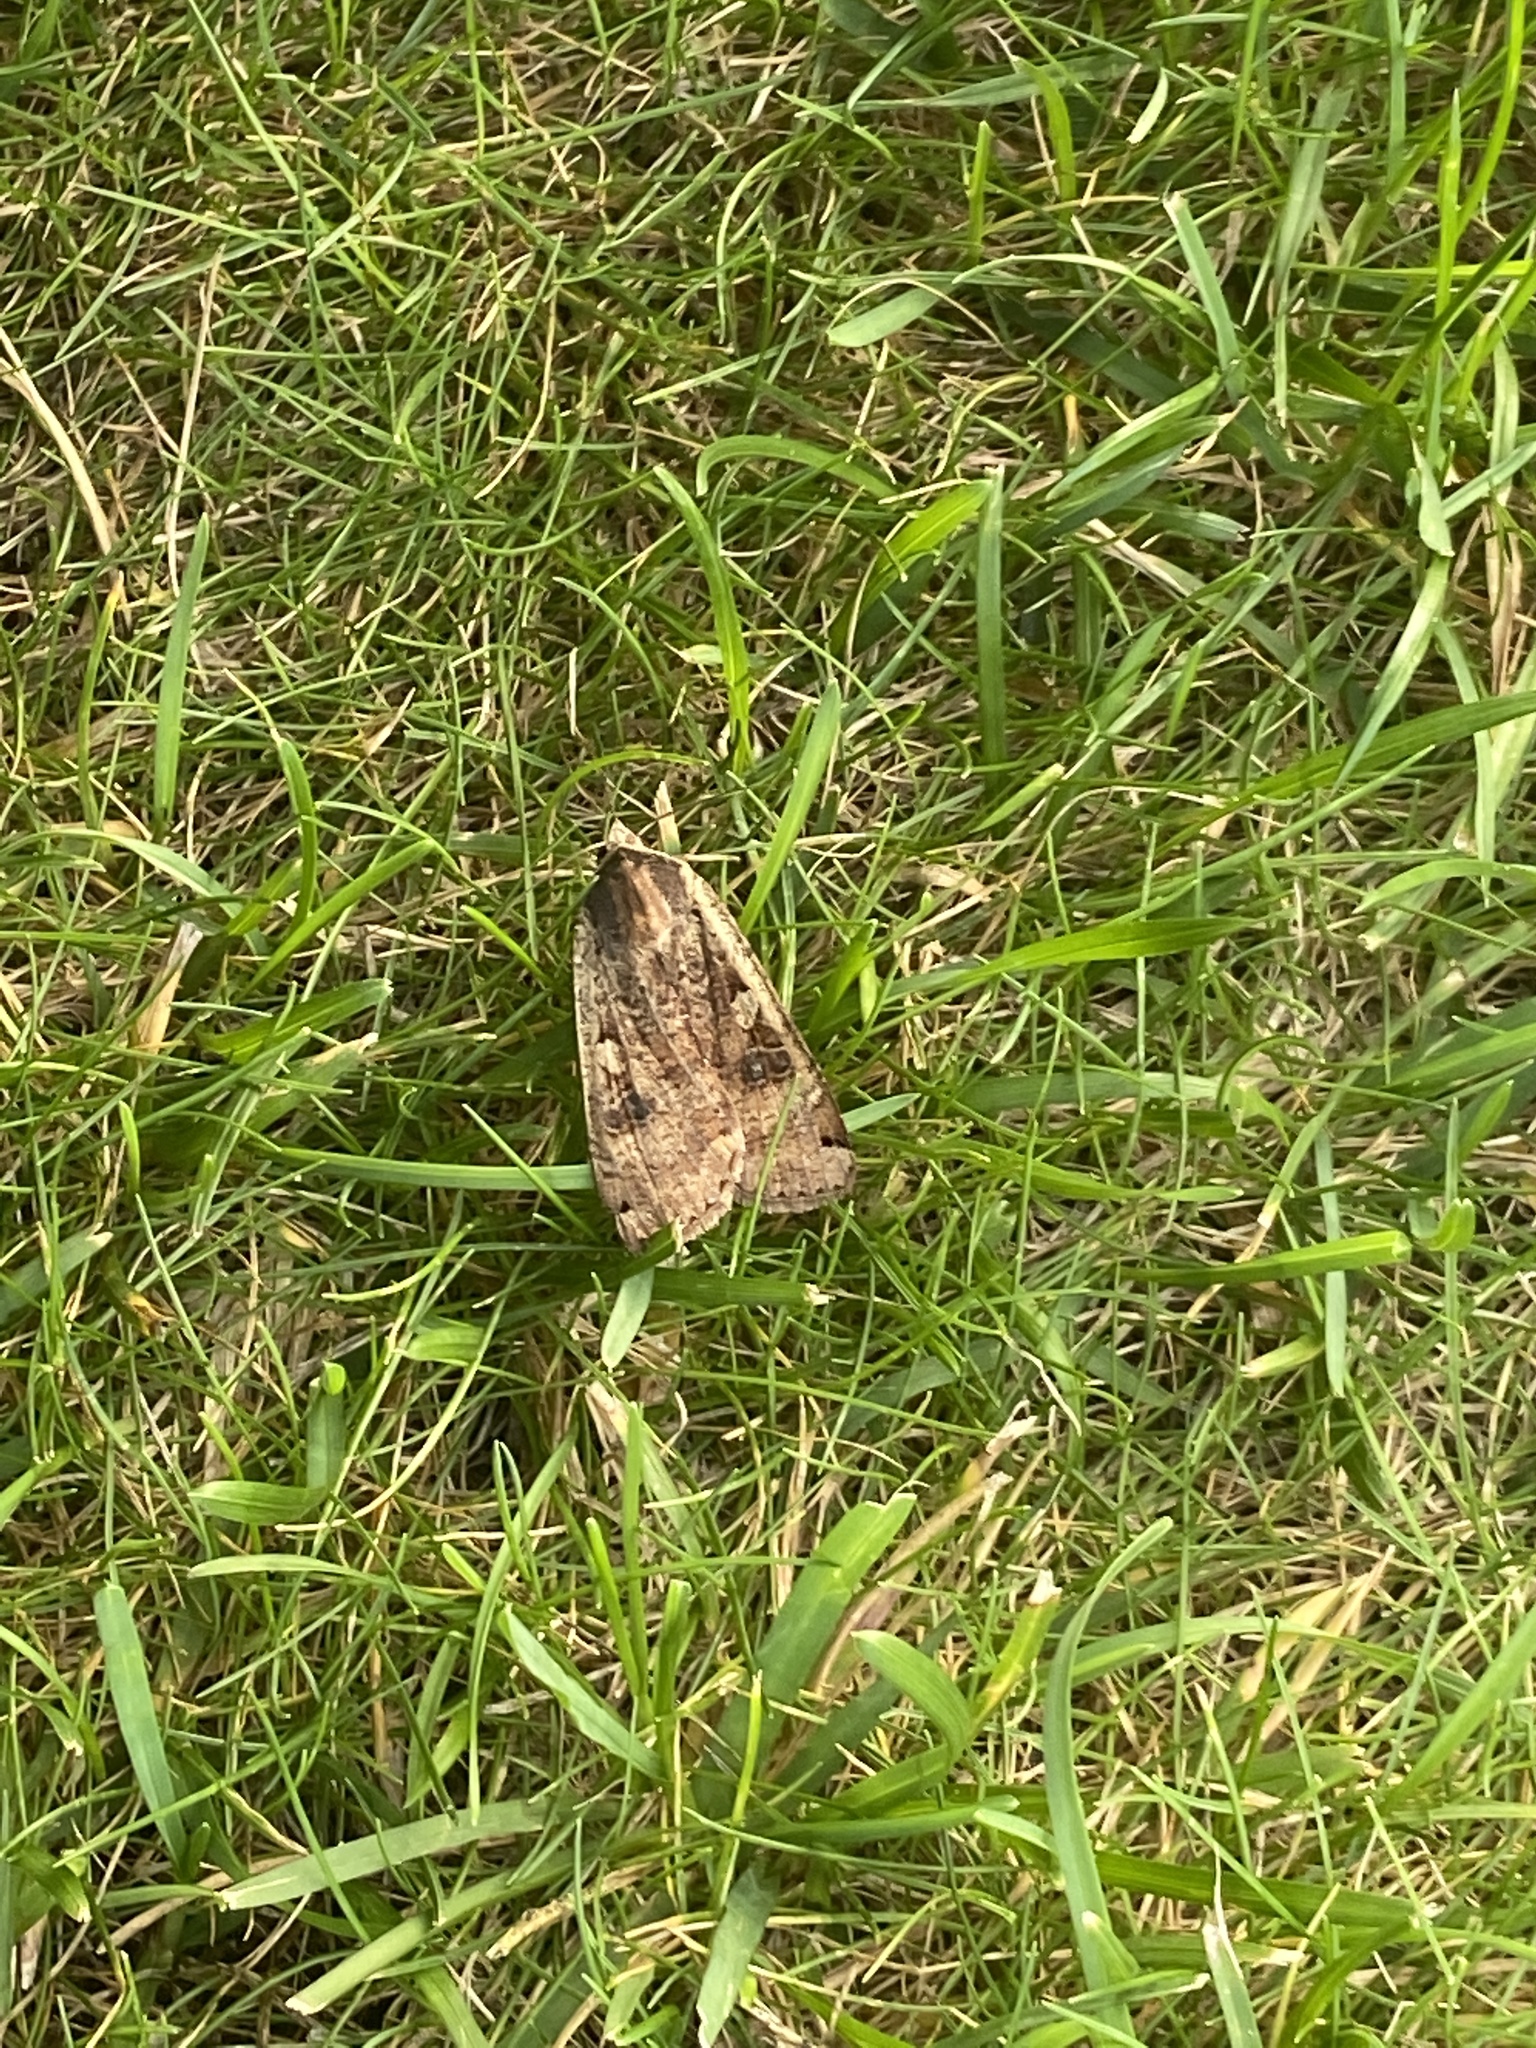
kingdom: Animalia
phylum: Arthropoda
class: Insecta
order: Lepidoptera
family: Noctuidae
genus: Noctua
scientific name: Noctua pronuba
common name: Large yellow underwing
